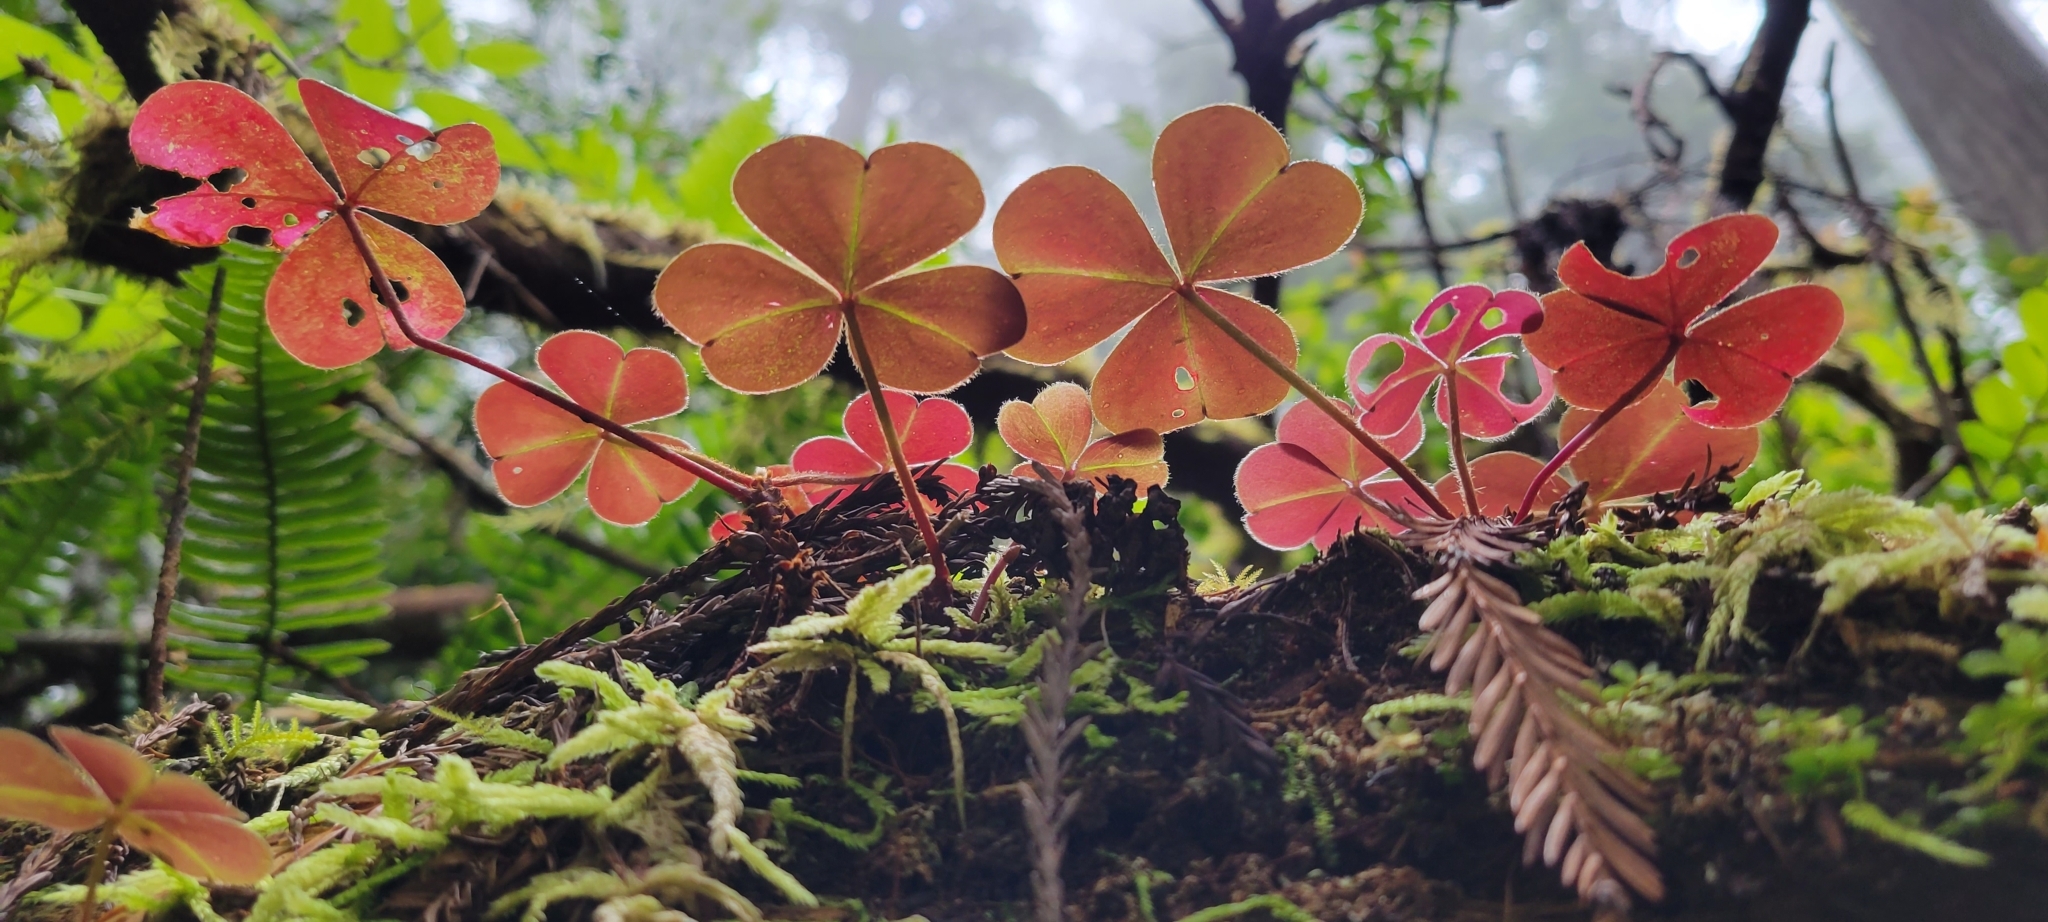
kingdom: Plantae
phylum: Tracheophyta
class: Magnoliopsida
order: Oxalidales
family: Oxalidaceae
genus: Oxalis
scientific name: Oxalis oregana
